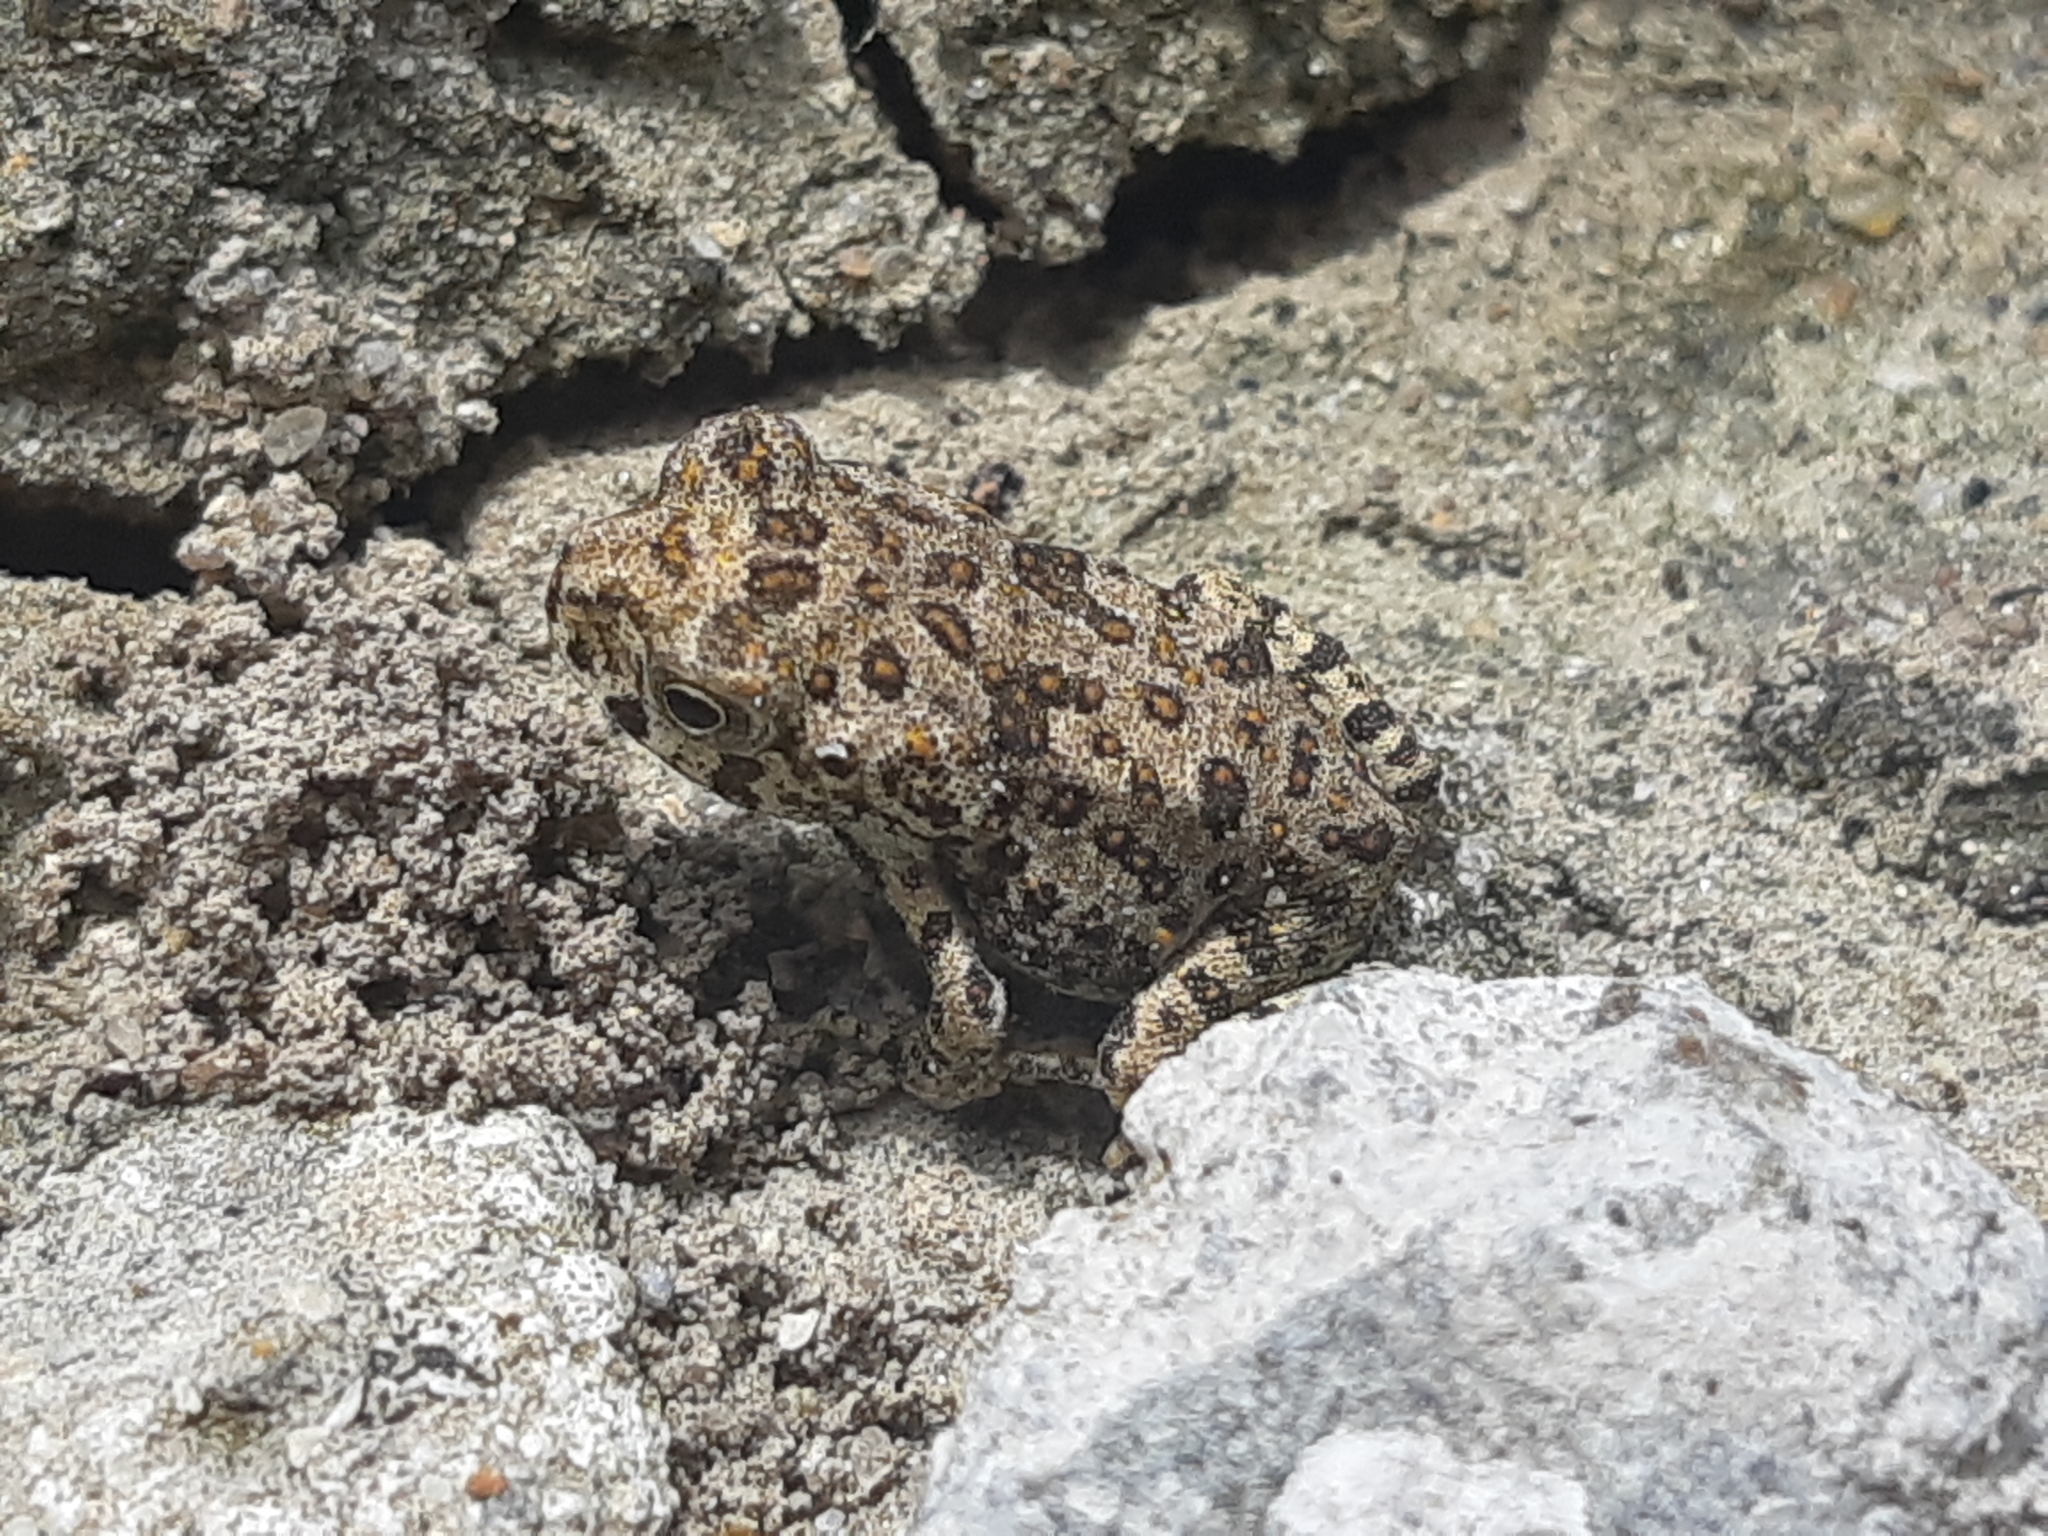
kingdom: Animalia
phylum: Chordata
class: Amphibia
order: Anura
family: Bufonidae
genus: Rhinella
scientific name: Rhinella
